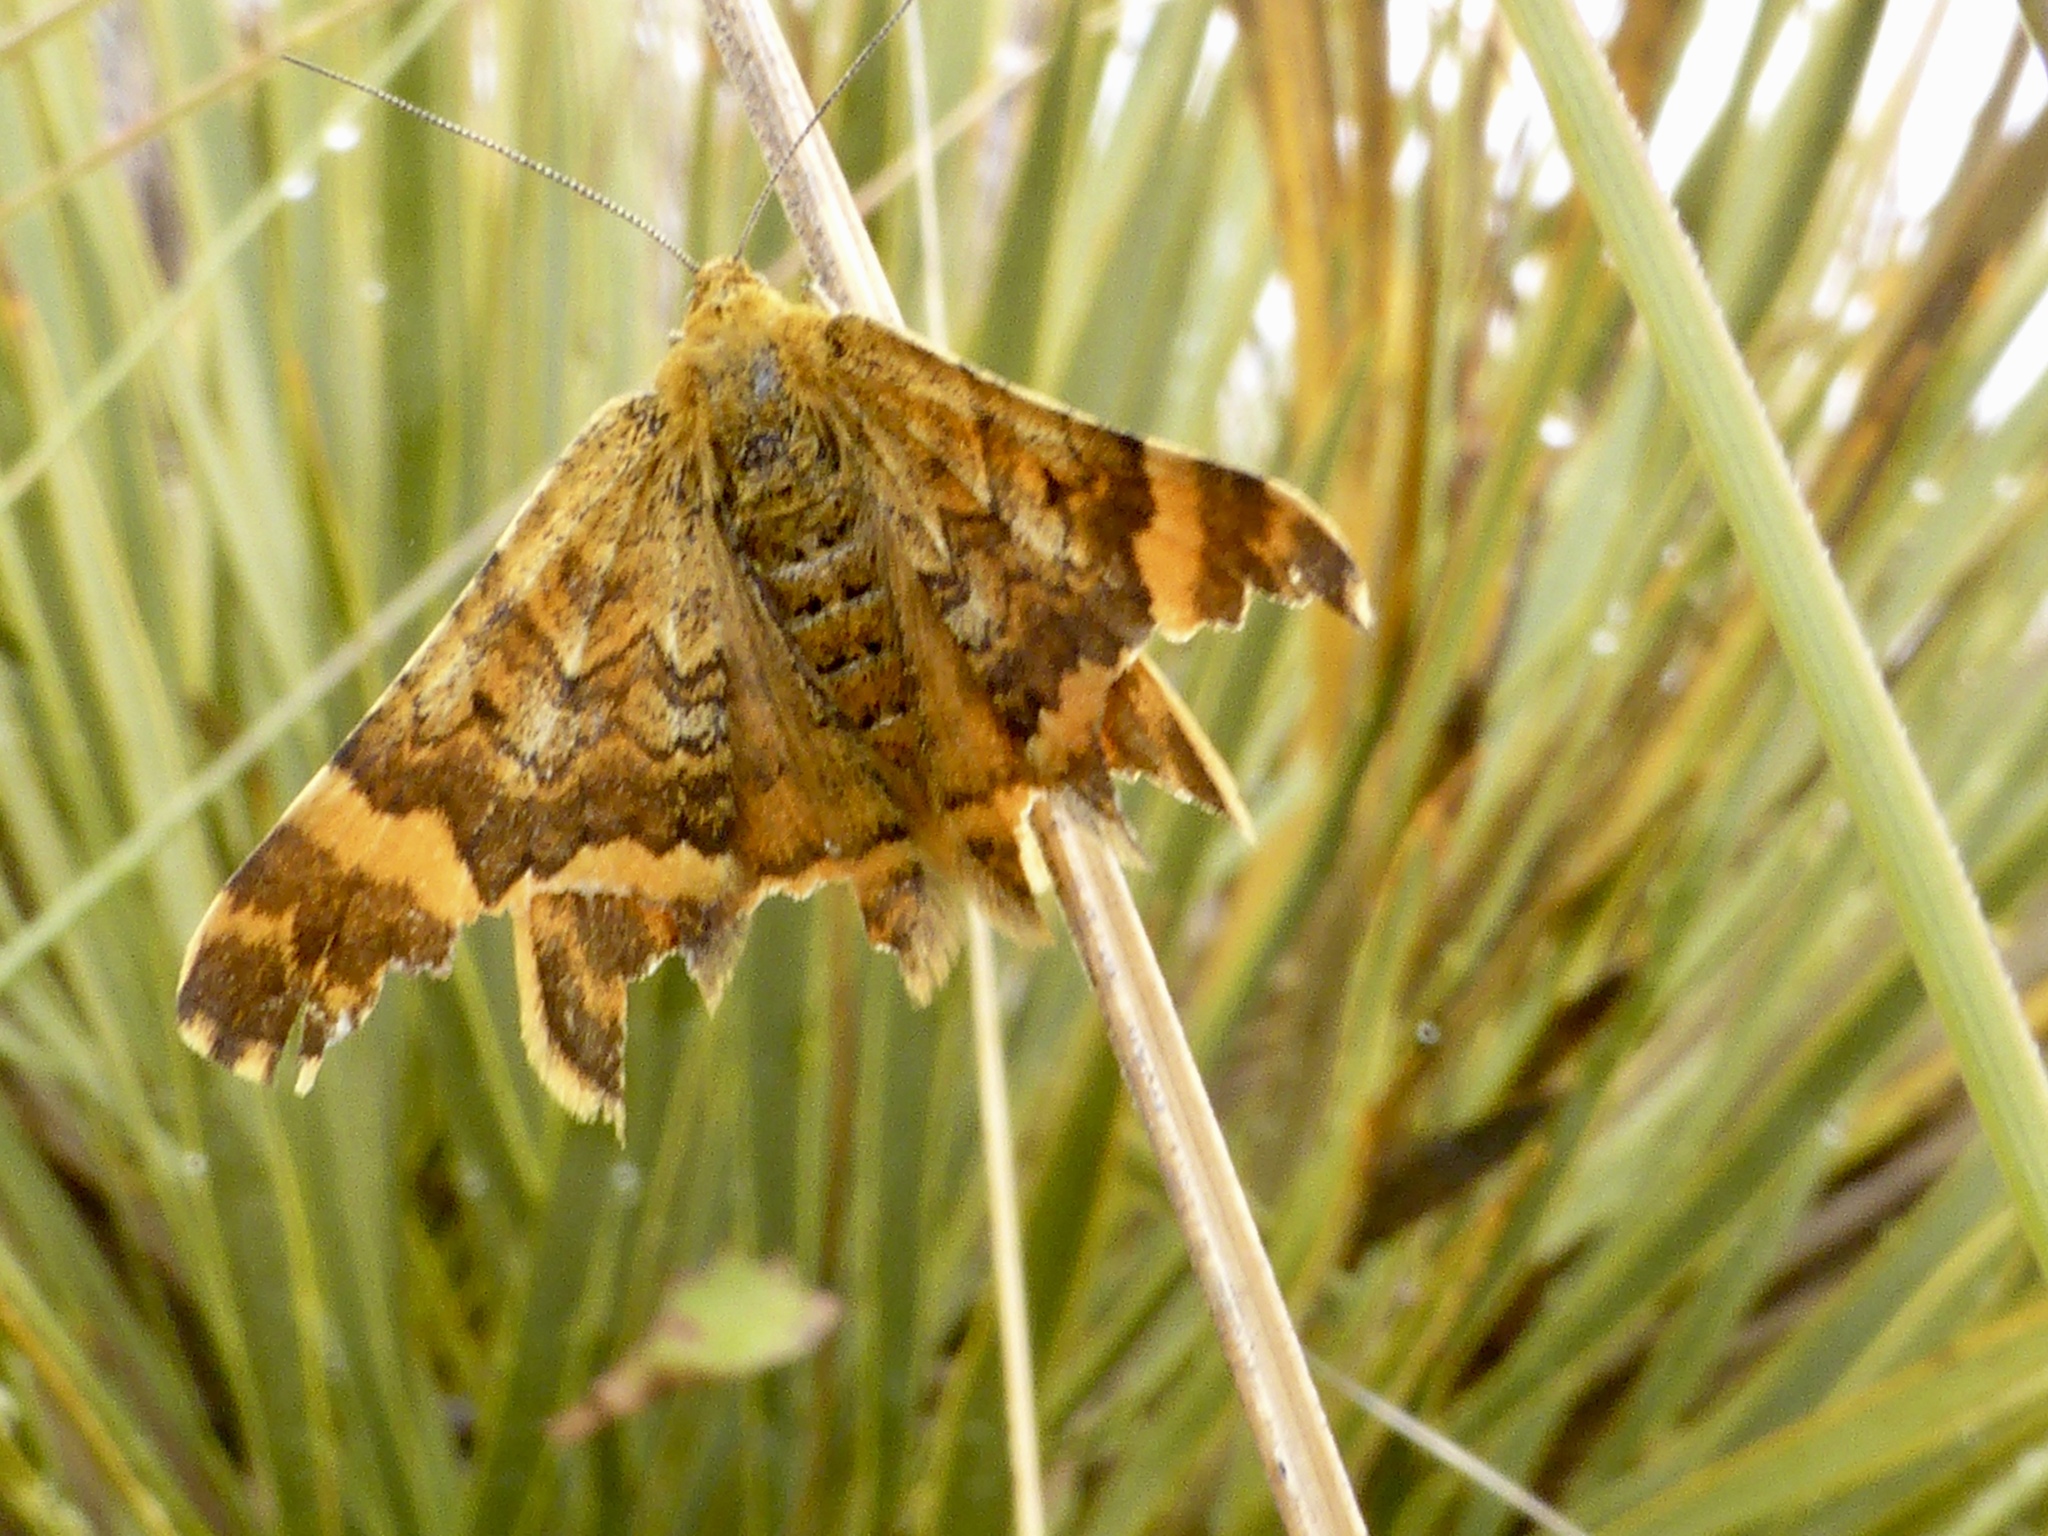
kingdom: Animalia
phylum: Arthropoda
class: Insecta
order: Lepidoptera
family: Geometridae
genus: Dasyuris
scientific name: Dasyuris partheniata
